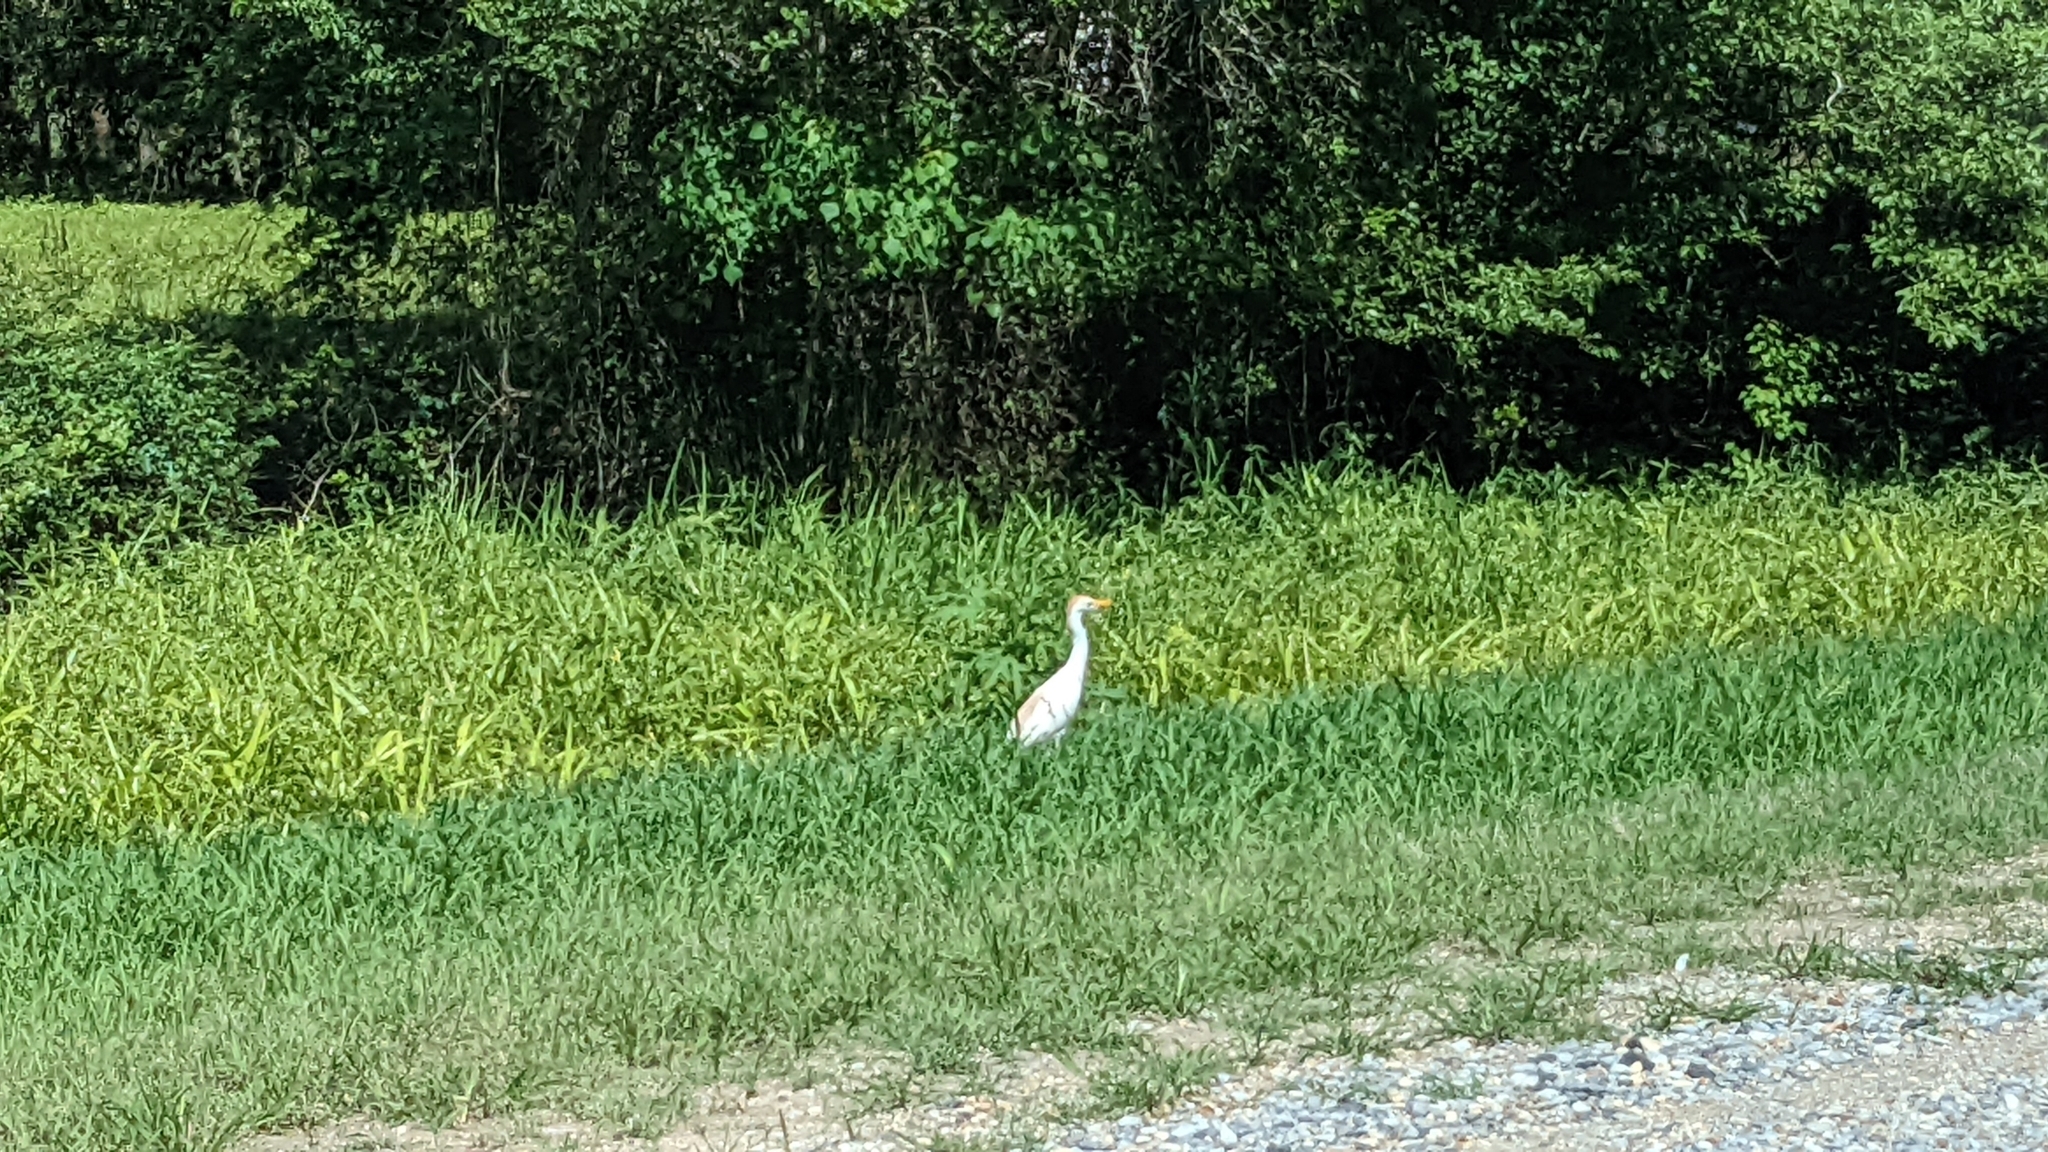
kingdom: Animalia
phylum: Chordata
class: Aves
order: Pelecaniformes
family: Ardeidae
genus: Bubulcus
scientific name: Bubulcus ibis
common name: Cattle egret
